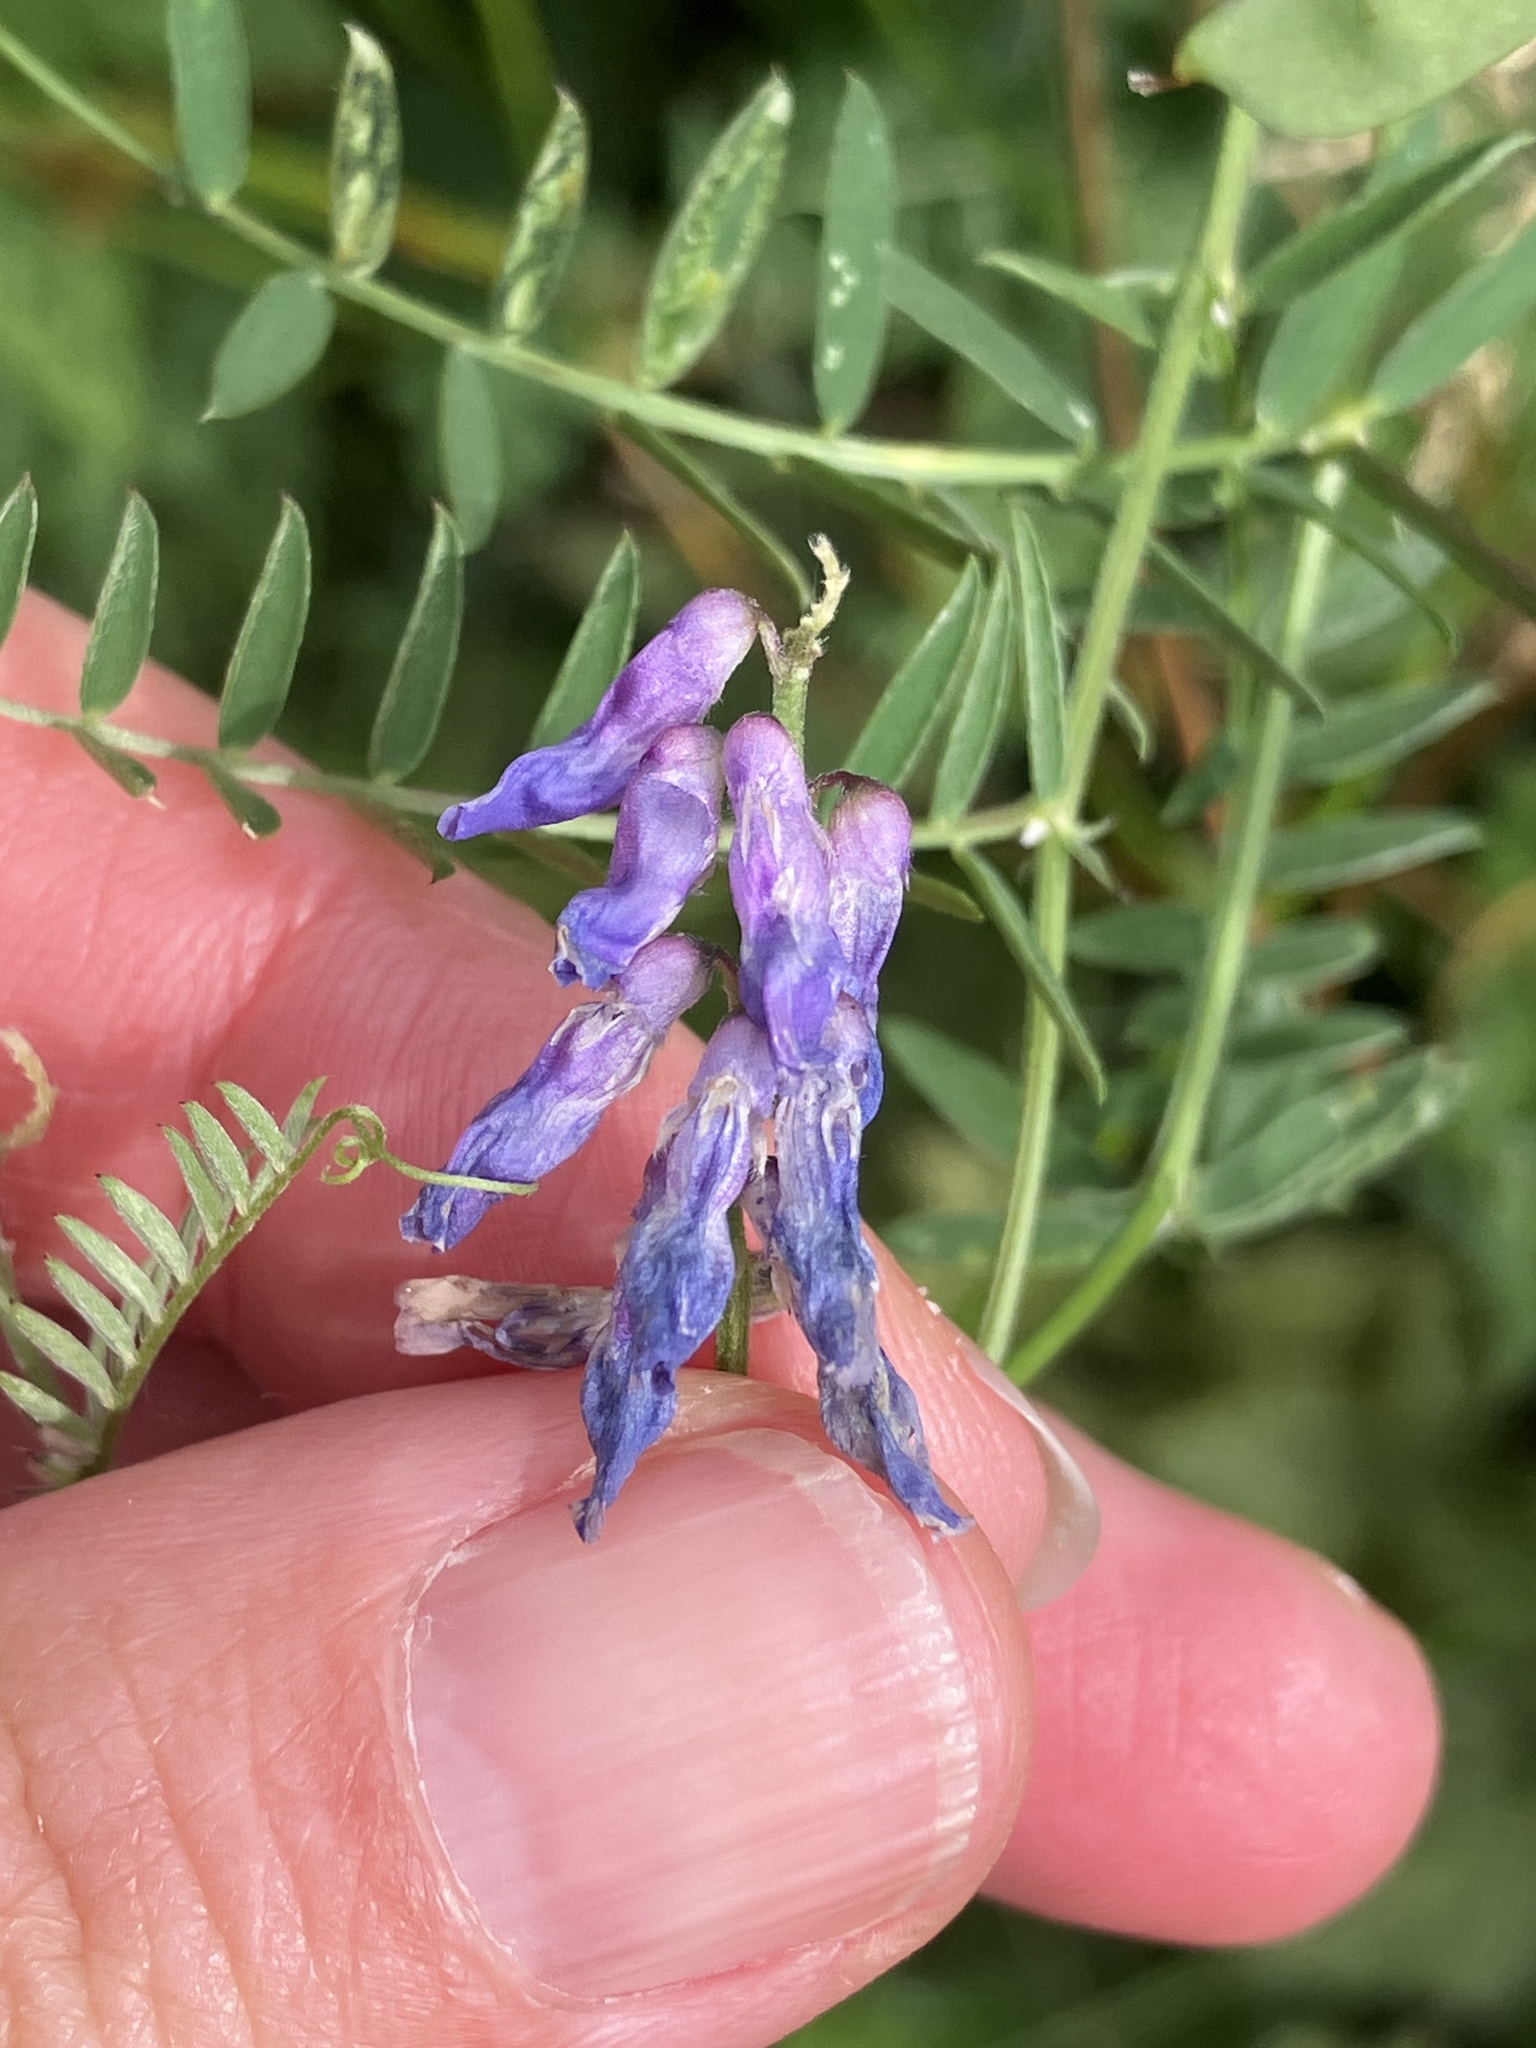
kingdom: Plantae
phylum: Tracheophyta
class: Magnoliopsida
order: Fabales
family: Fabaceae
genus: Vicia
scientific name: Vicia cracca
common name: Bird vetch
